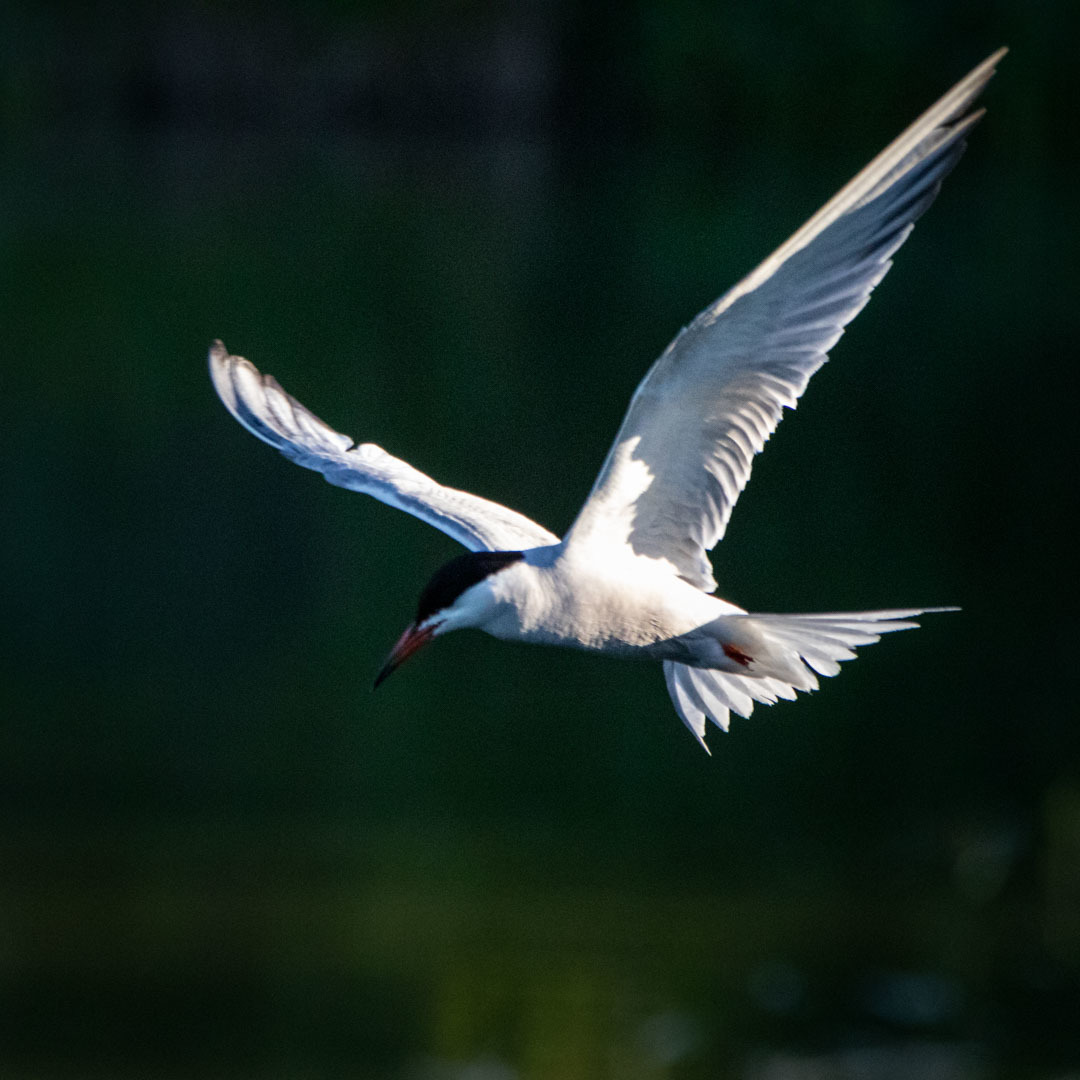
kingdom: Animalia
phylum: Chordata
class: Aves
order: Charadriiformes
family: Laridae
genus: Sterna
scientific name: Sterna hirundo
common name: Common tern
